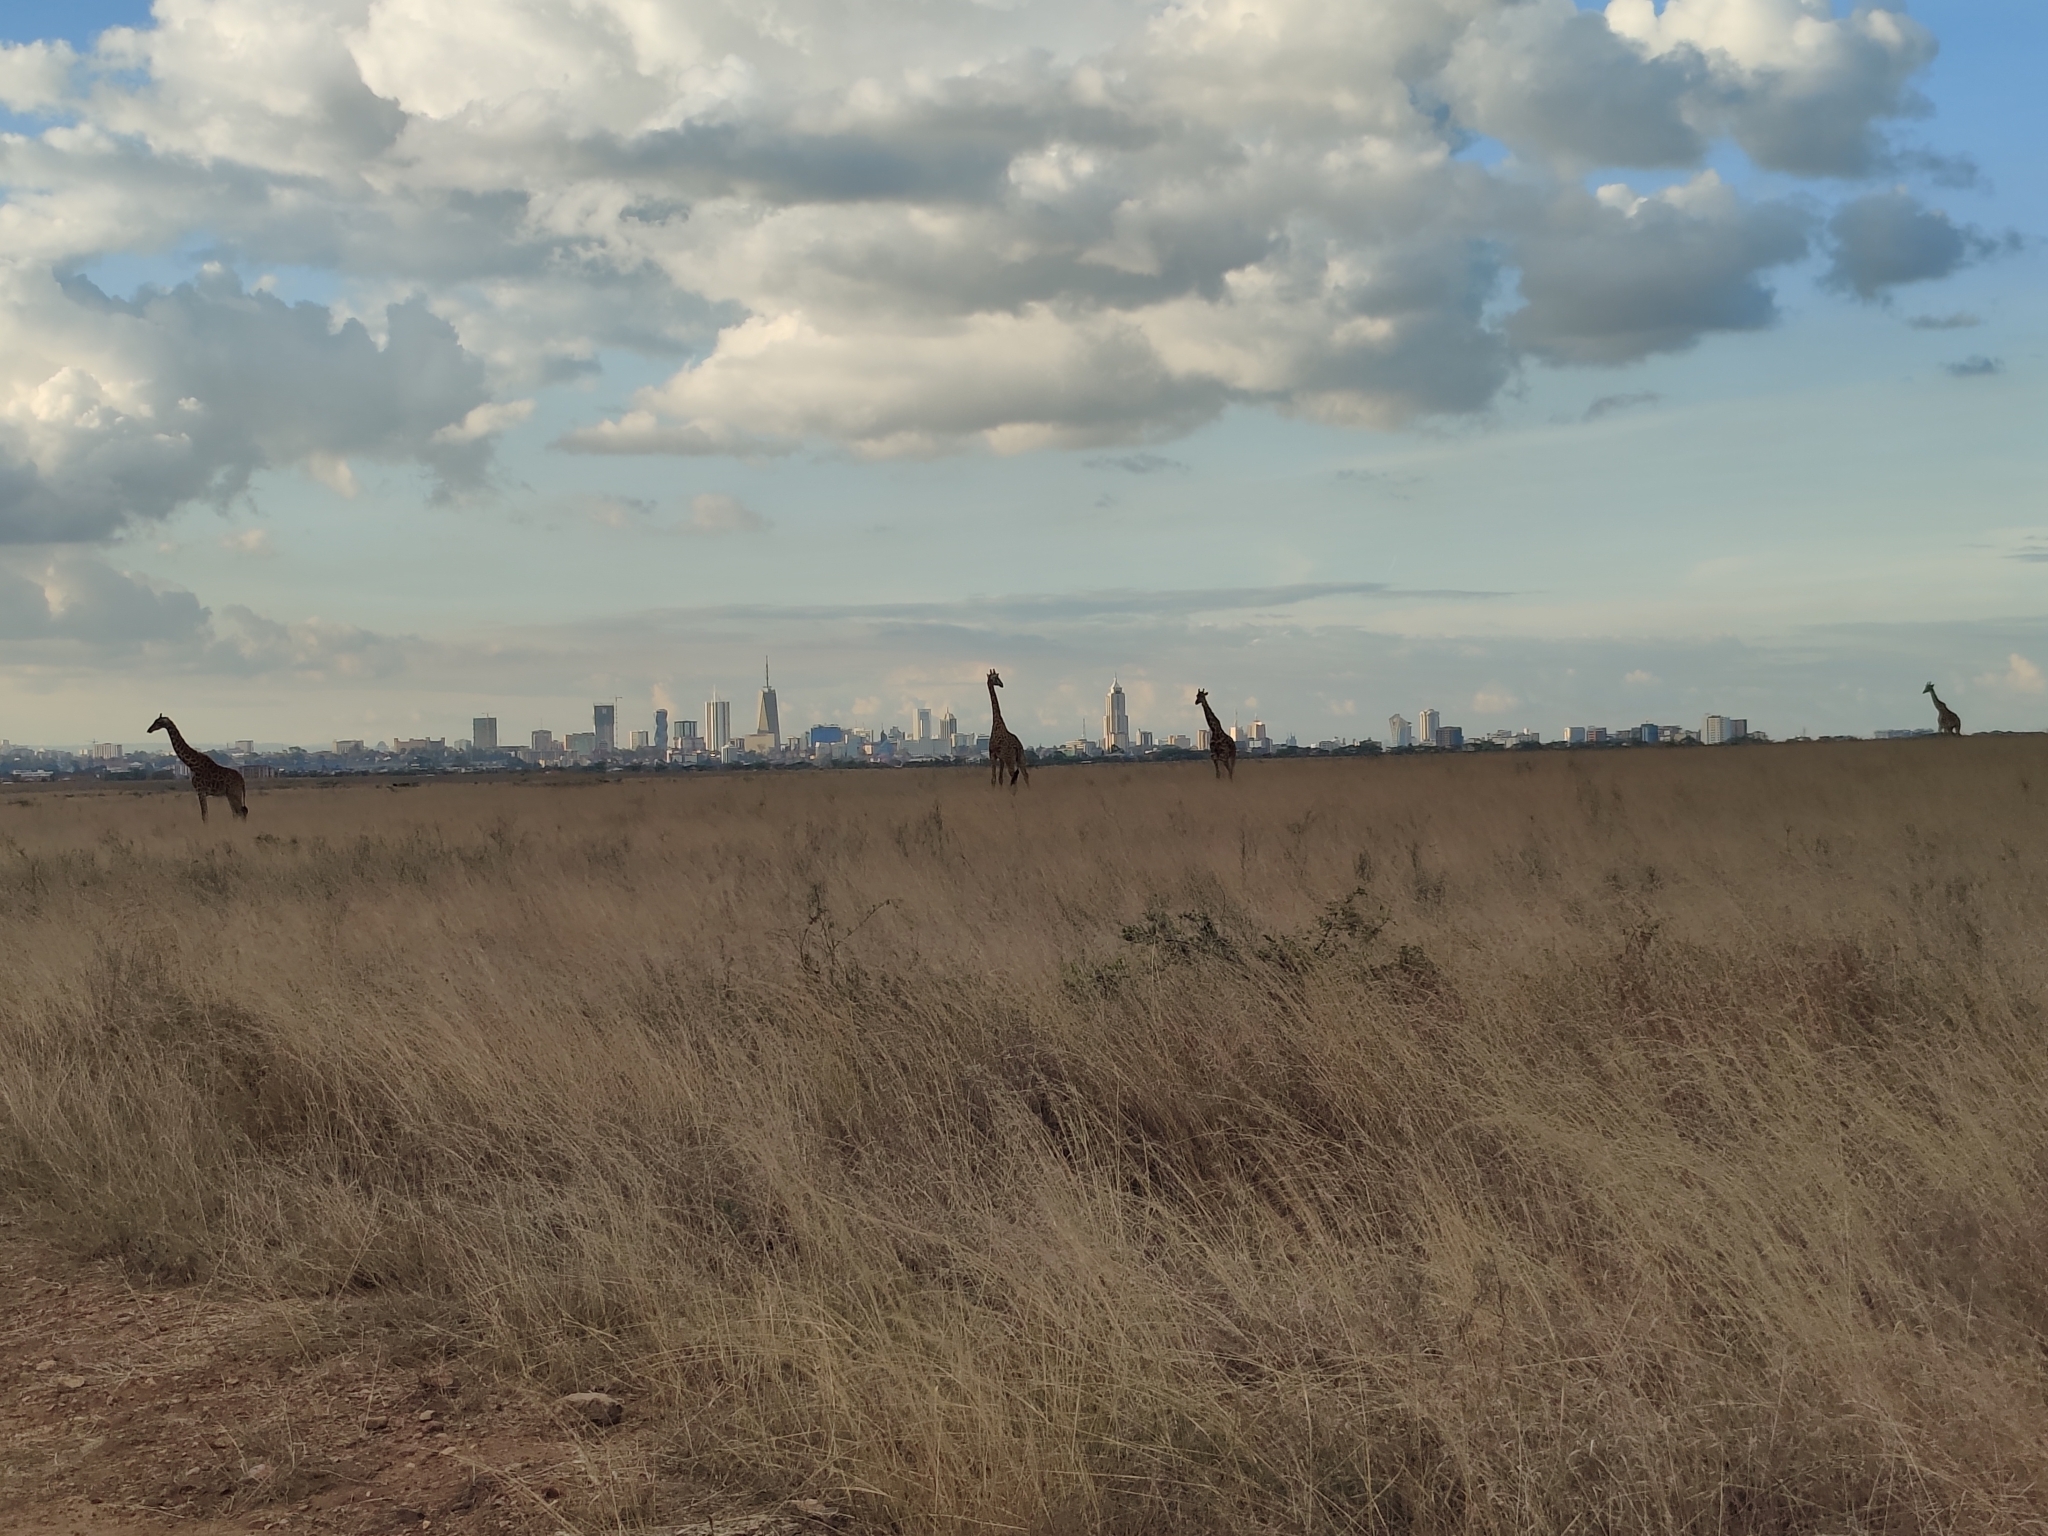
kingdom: Animalia
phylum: Chordata
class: Mammalia
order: Artiodactyla
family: Giraffidae
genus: Giraffa
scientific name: Giraffa tippelskirchi
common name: Masai giraffe
